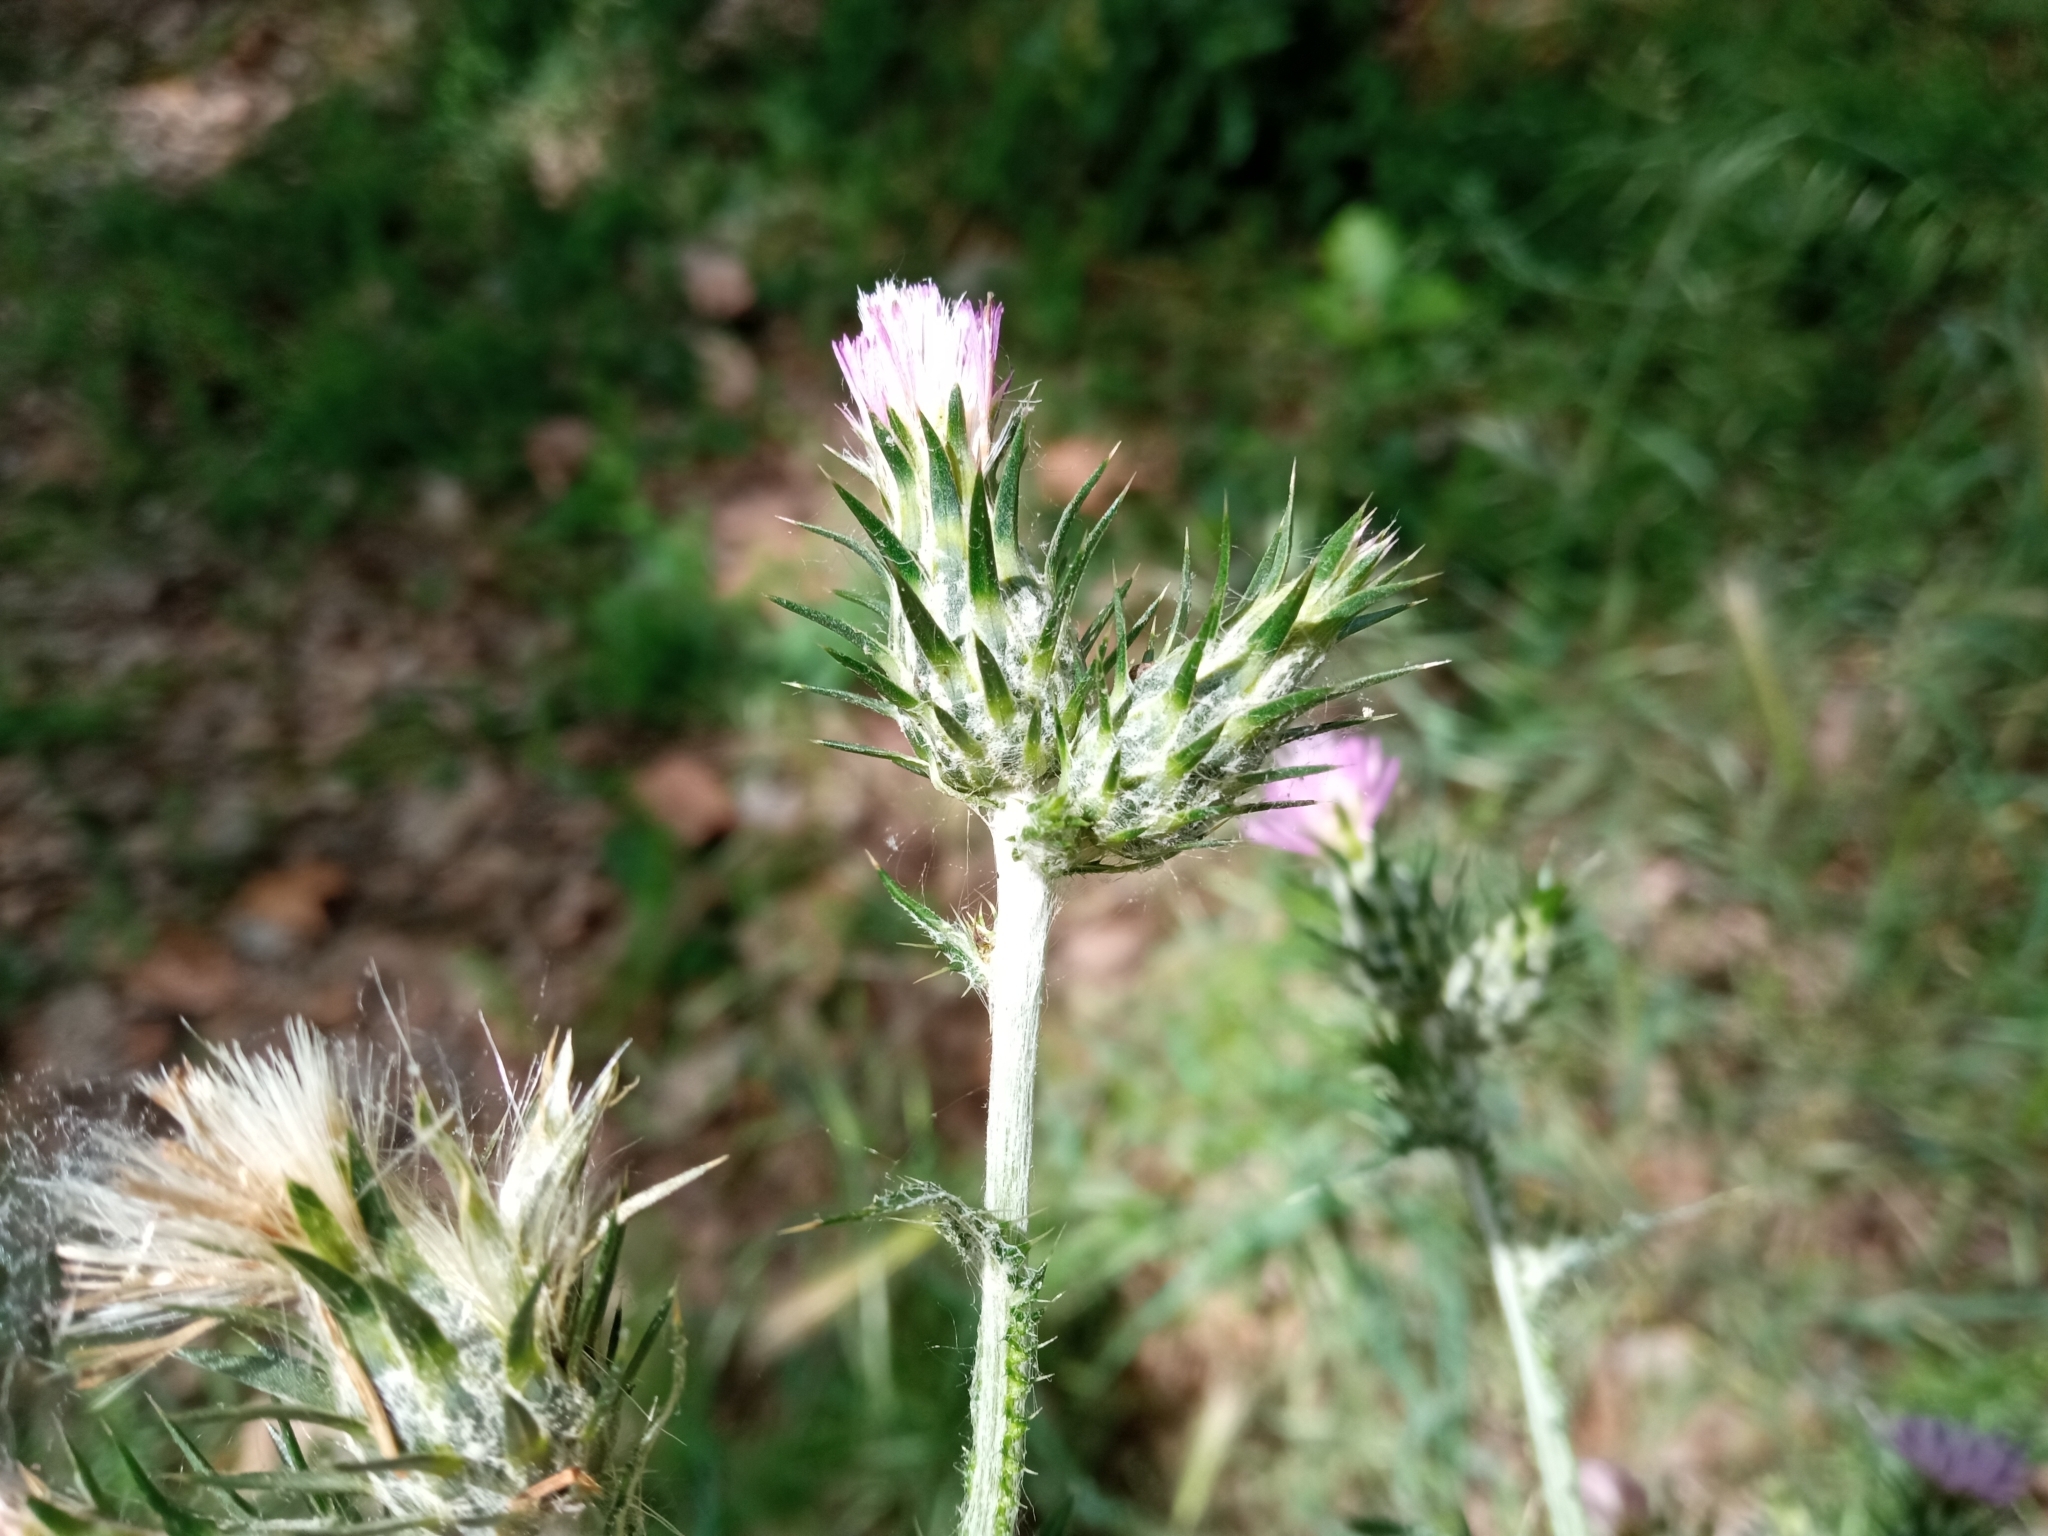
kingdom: Plantae
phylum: Tracheophyta
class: Magnoliopsida
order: Asterales
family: Asteraceae
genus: Carduus
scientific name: Carduus pycnocephalus
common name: Plymouth thistle
